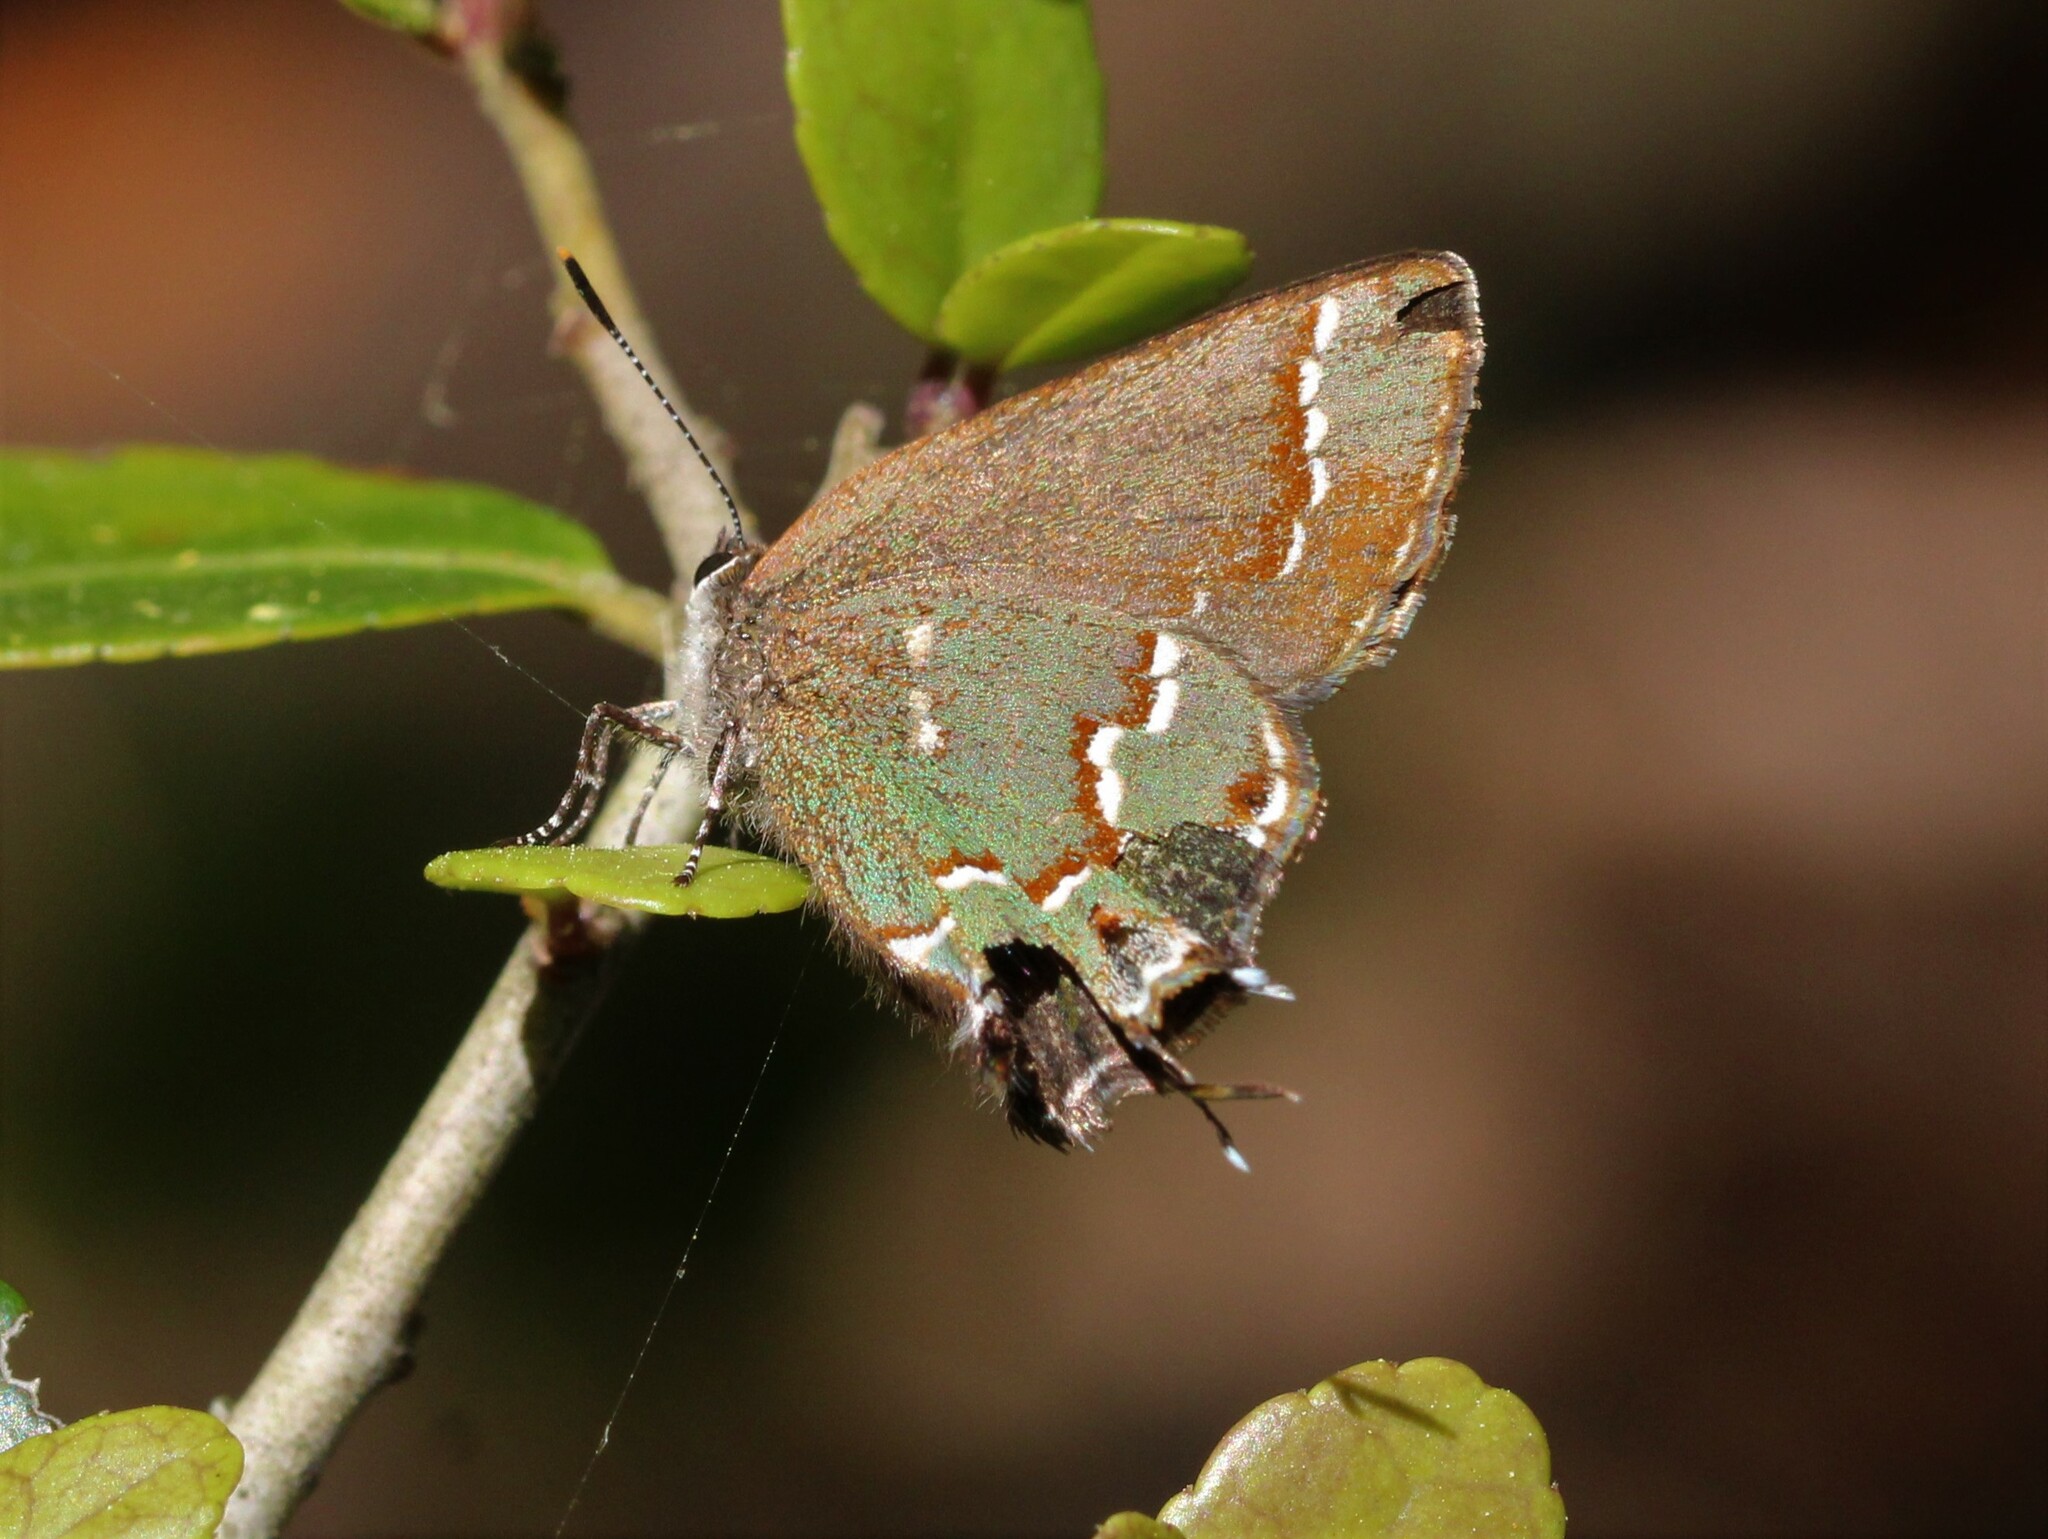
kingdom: Animalia
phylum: Arthropoda
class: Insecta
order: Lepidoptera
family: Lycaenidae
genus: Mitoura
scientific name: Mitoura gryneus
